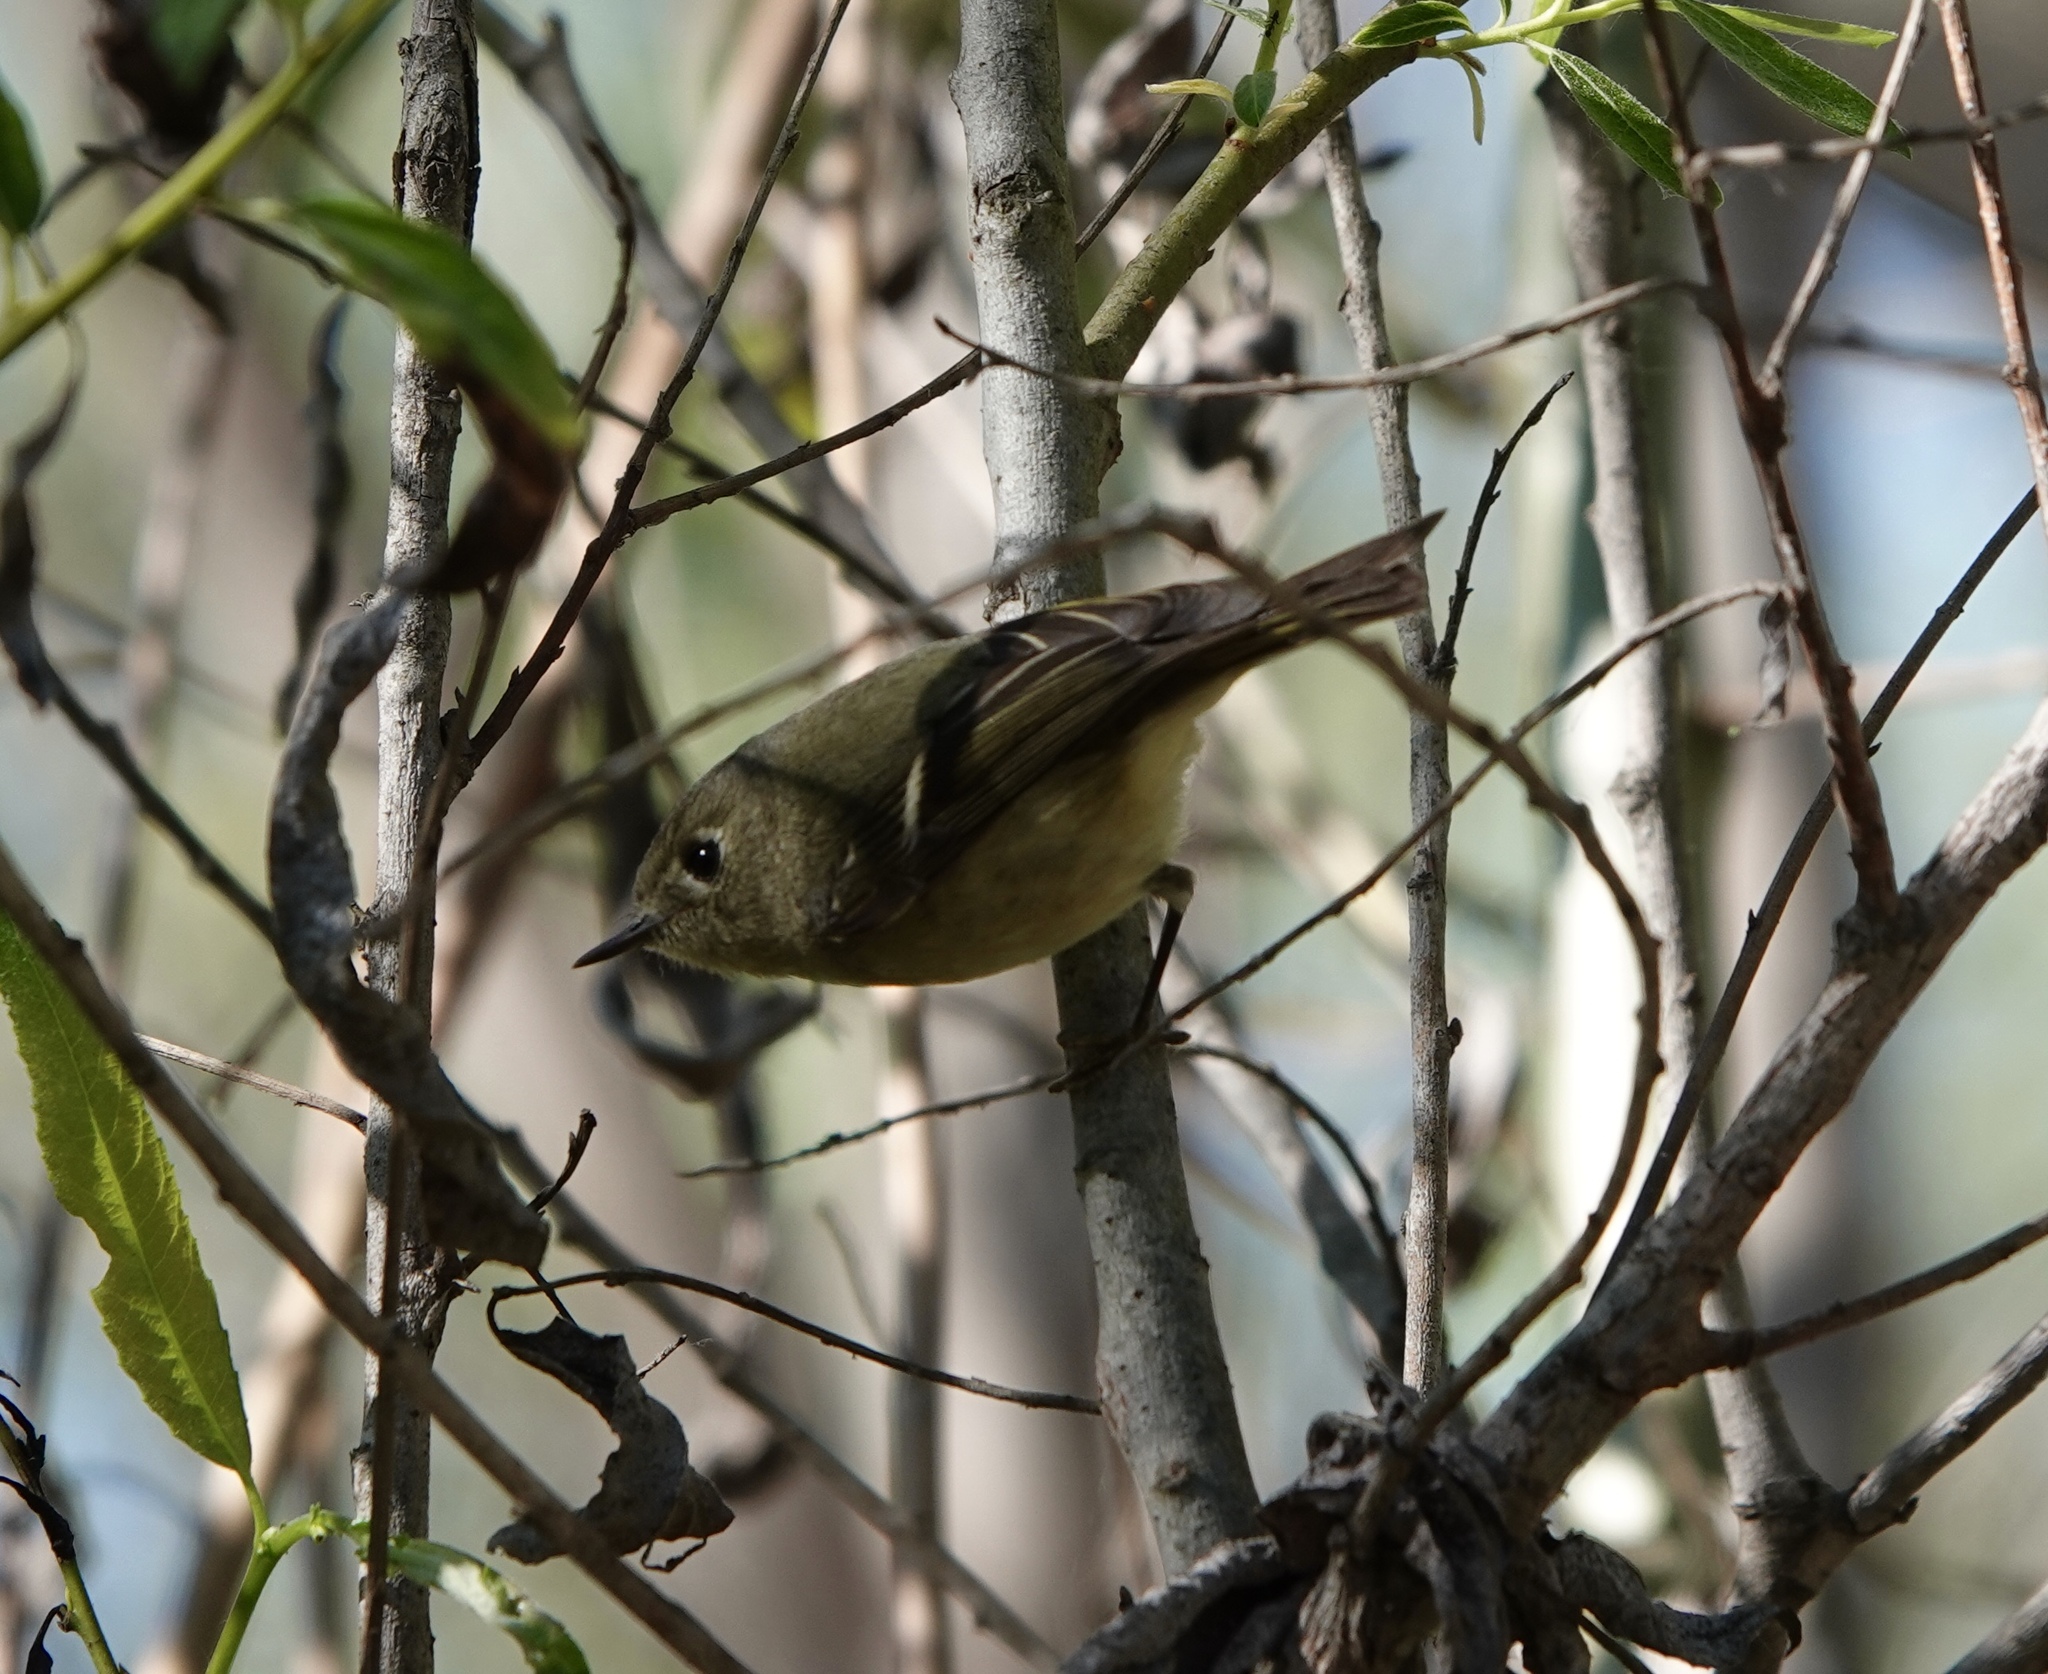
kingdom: Animalia
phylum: Chordata
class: Aves
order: Passeriformes
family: Regulidae
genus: Regulus
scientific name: Regulus calendula
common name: Ruby-crowned kinglet
